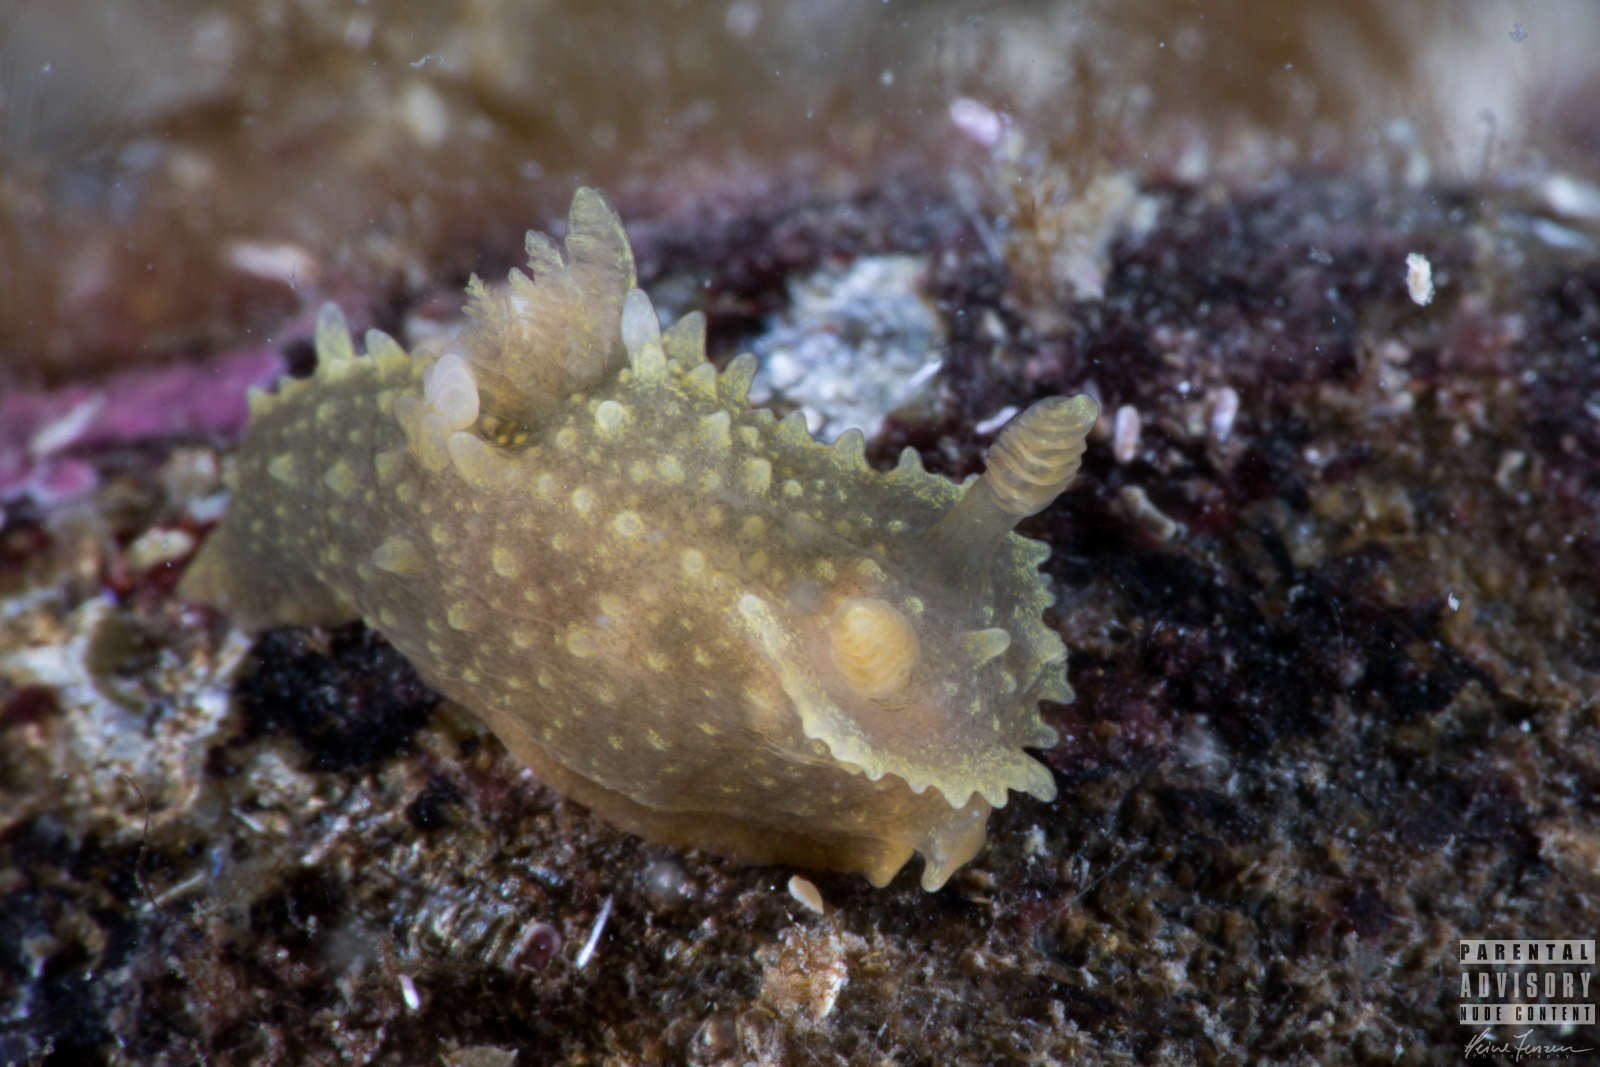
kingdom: Animalia
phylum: Mollusca
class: Gastropoda
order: Nudibranchia
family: Polyceridae
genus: Palio
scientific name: Palio dubia
